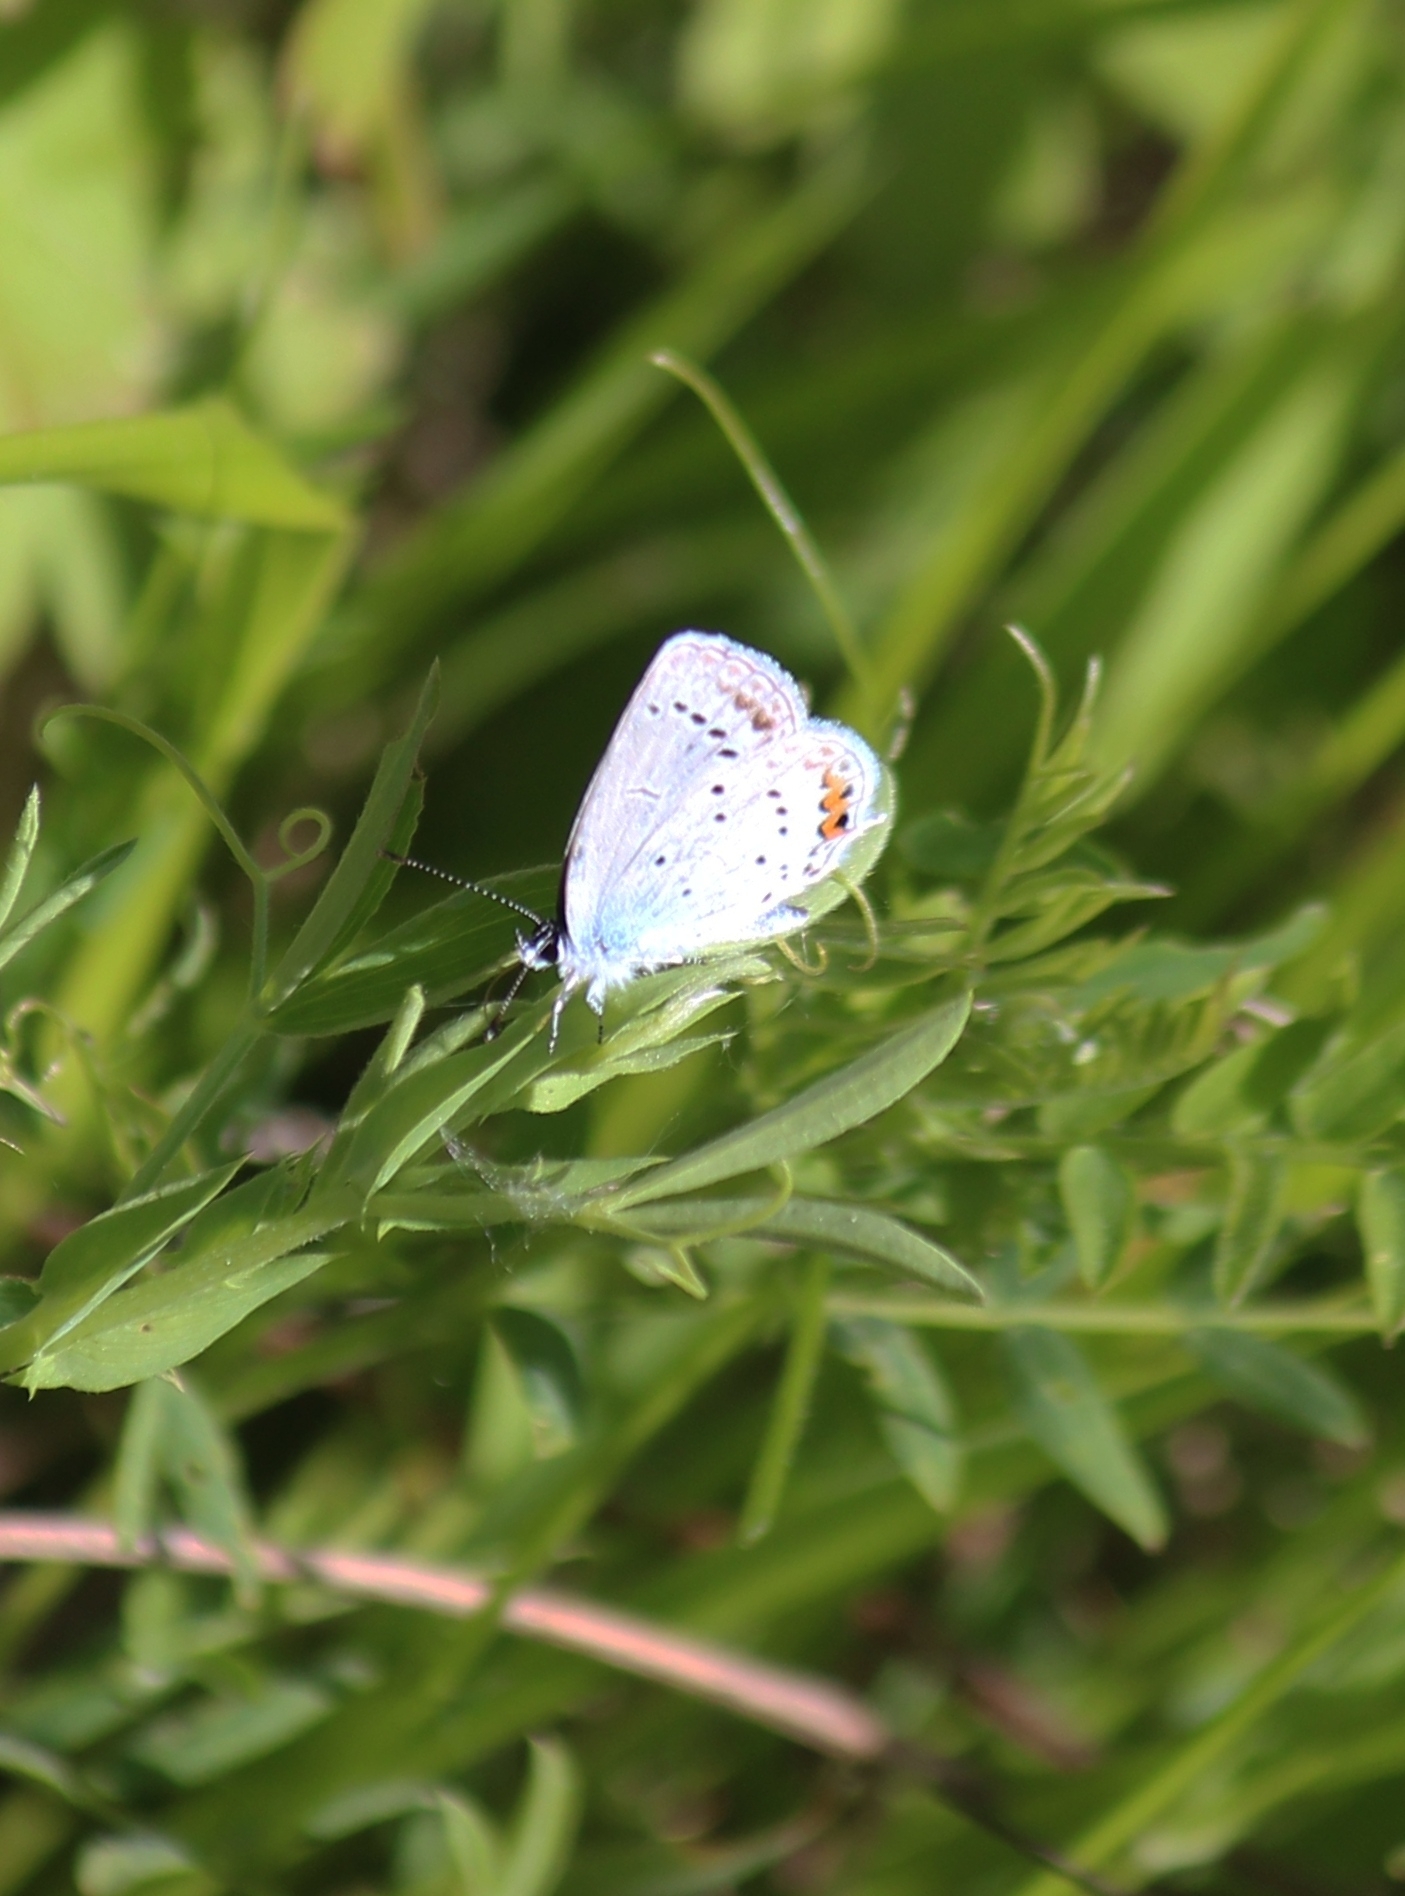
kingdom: Animalia
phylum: Arthropoda
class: Insecta
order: Lepidoptera
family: Lycaenidae
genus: Elkalyce
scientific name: Elkalyce argiades
